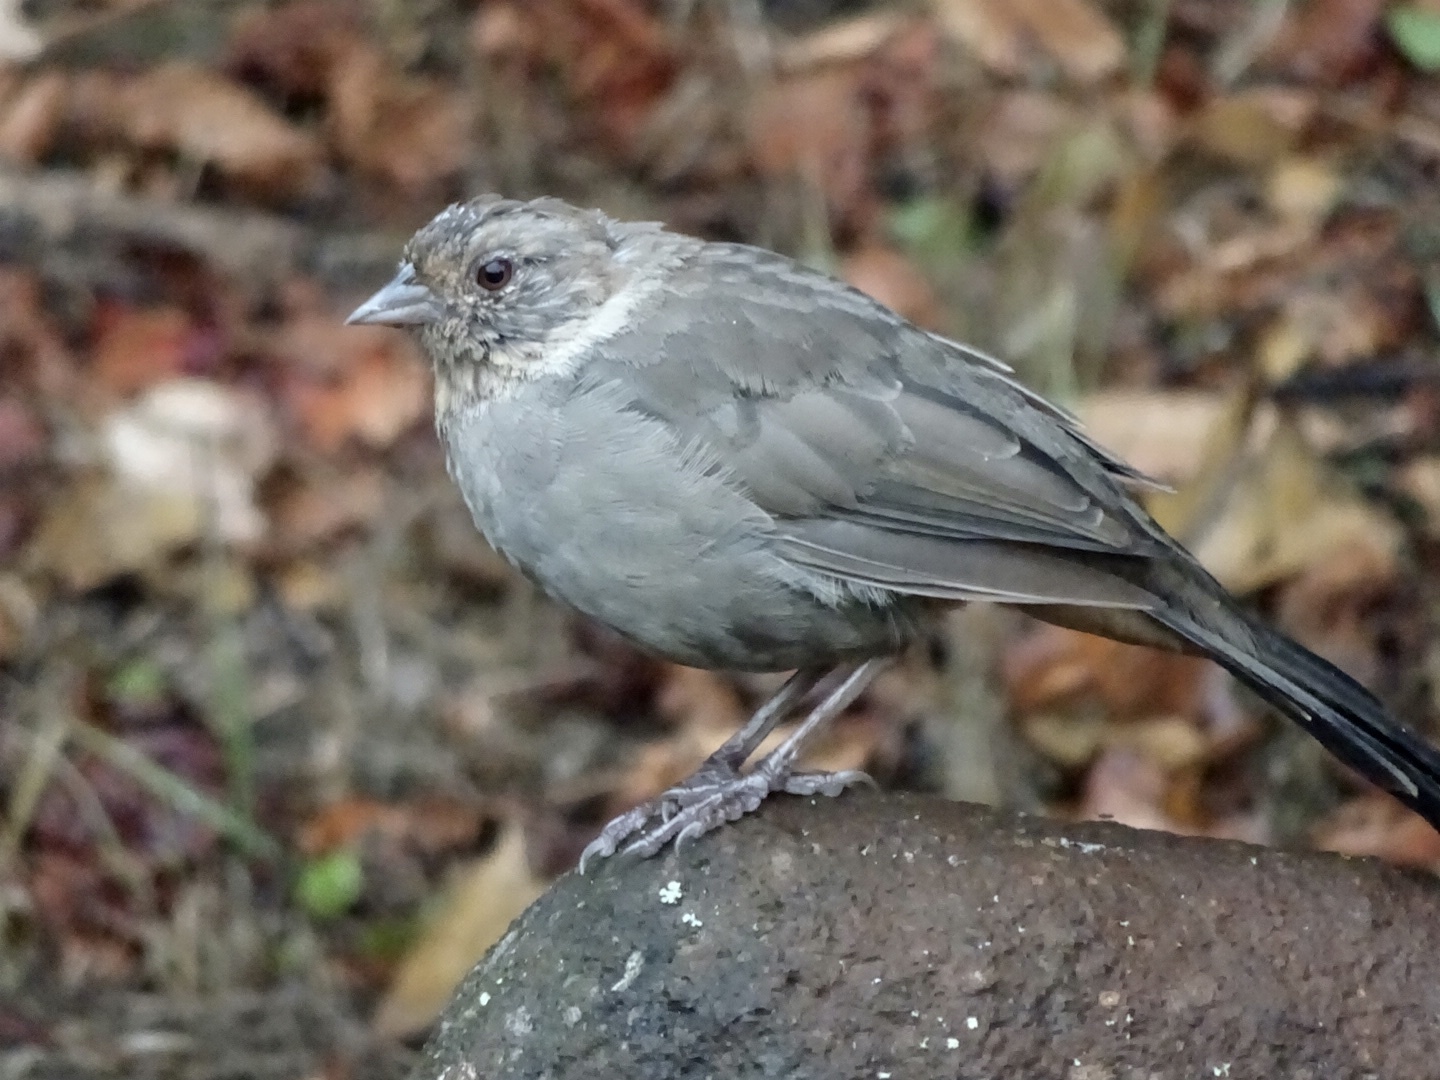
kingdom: Animalia
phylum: Chordata
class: Aves
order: Passeriformes
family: Passerellidae
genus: Melozone
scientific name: Melozone crissalis
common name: California towhee
